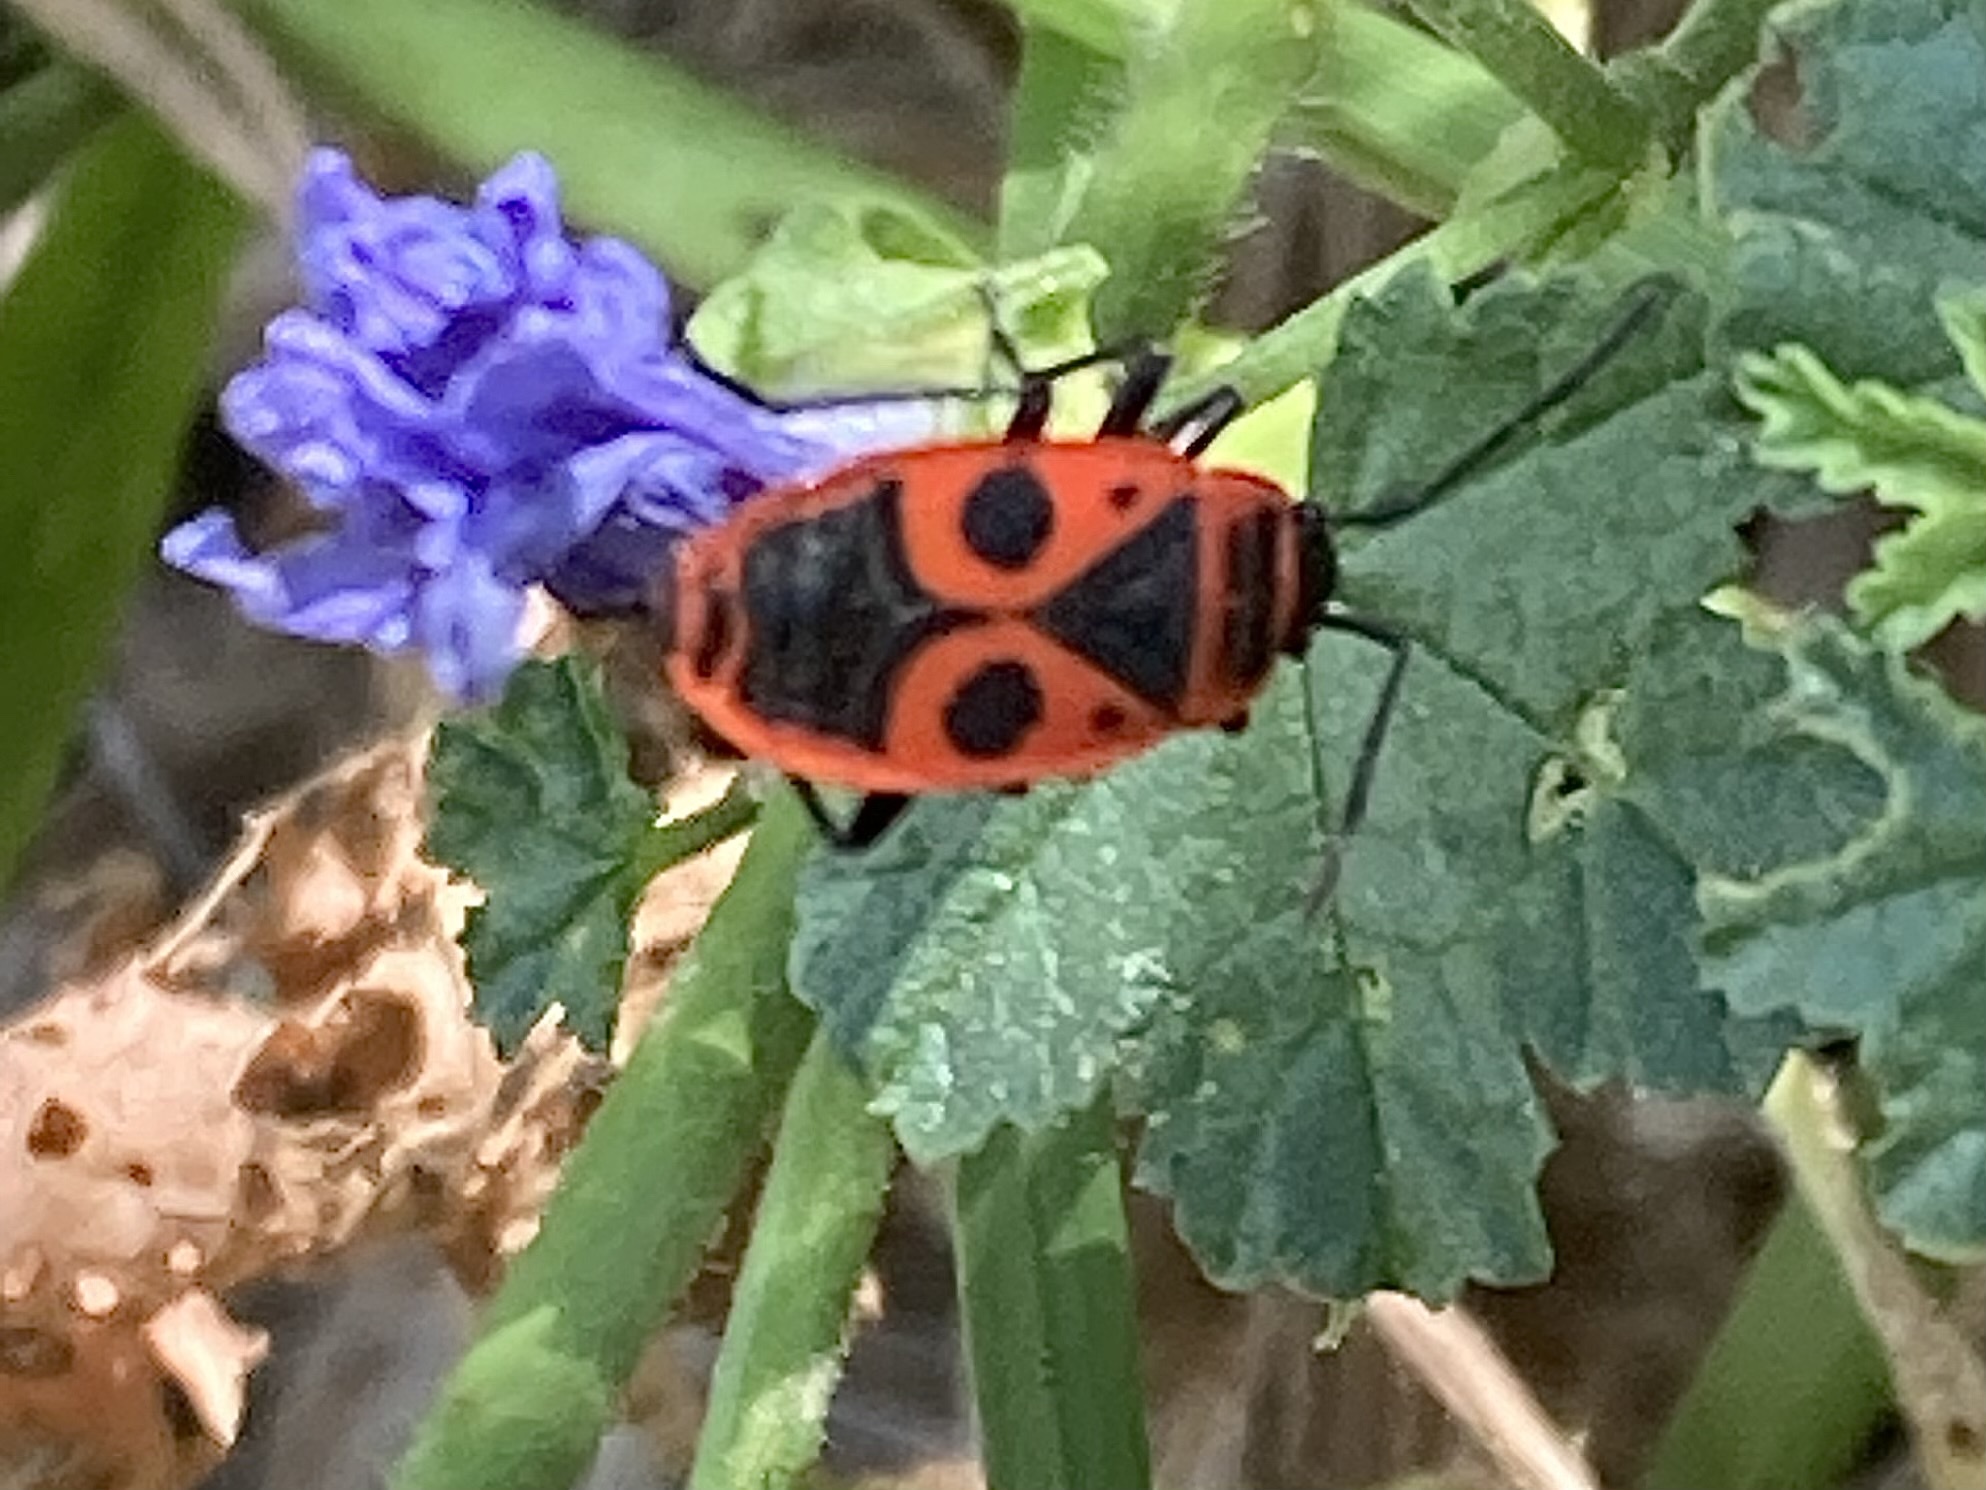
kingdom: Animalia
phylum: Arthropoda
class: Insecta
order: Hemiptera
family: Pyrrhocoridae
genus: Pyrrhocoris
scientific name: Pyrrhocoris apterus
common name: Firebug
